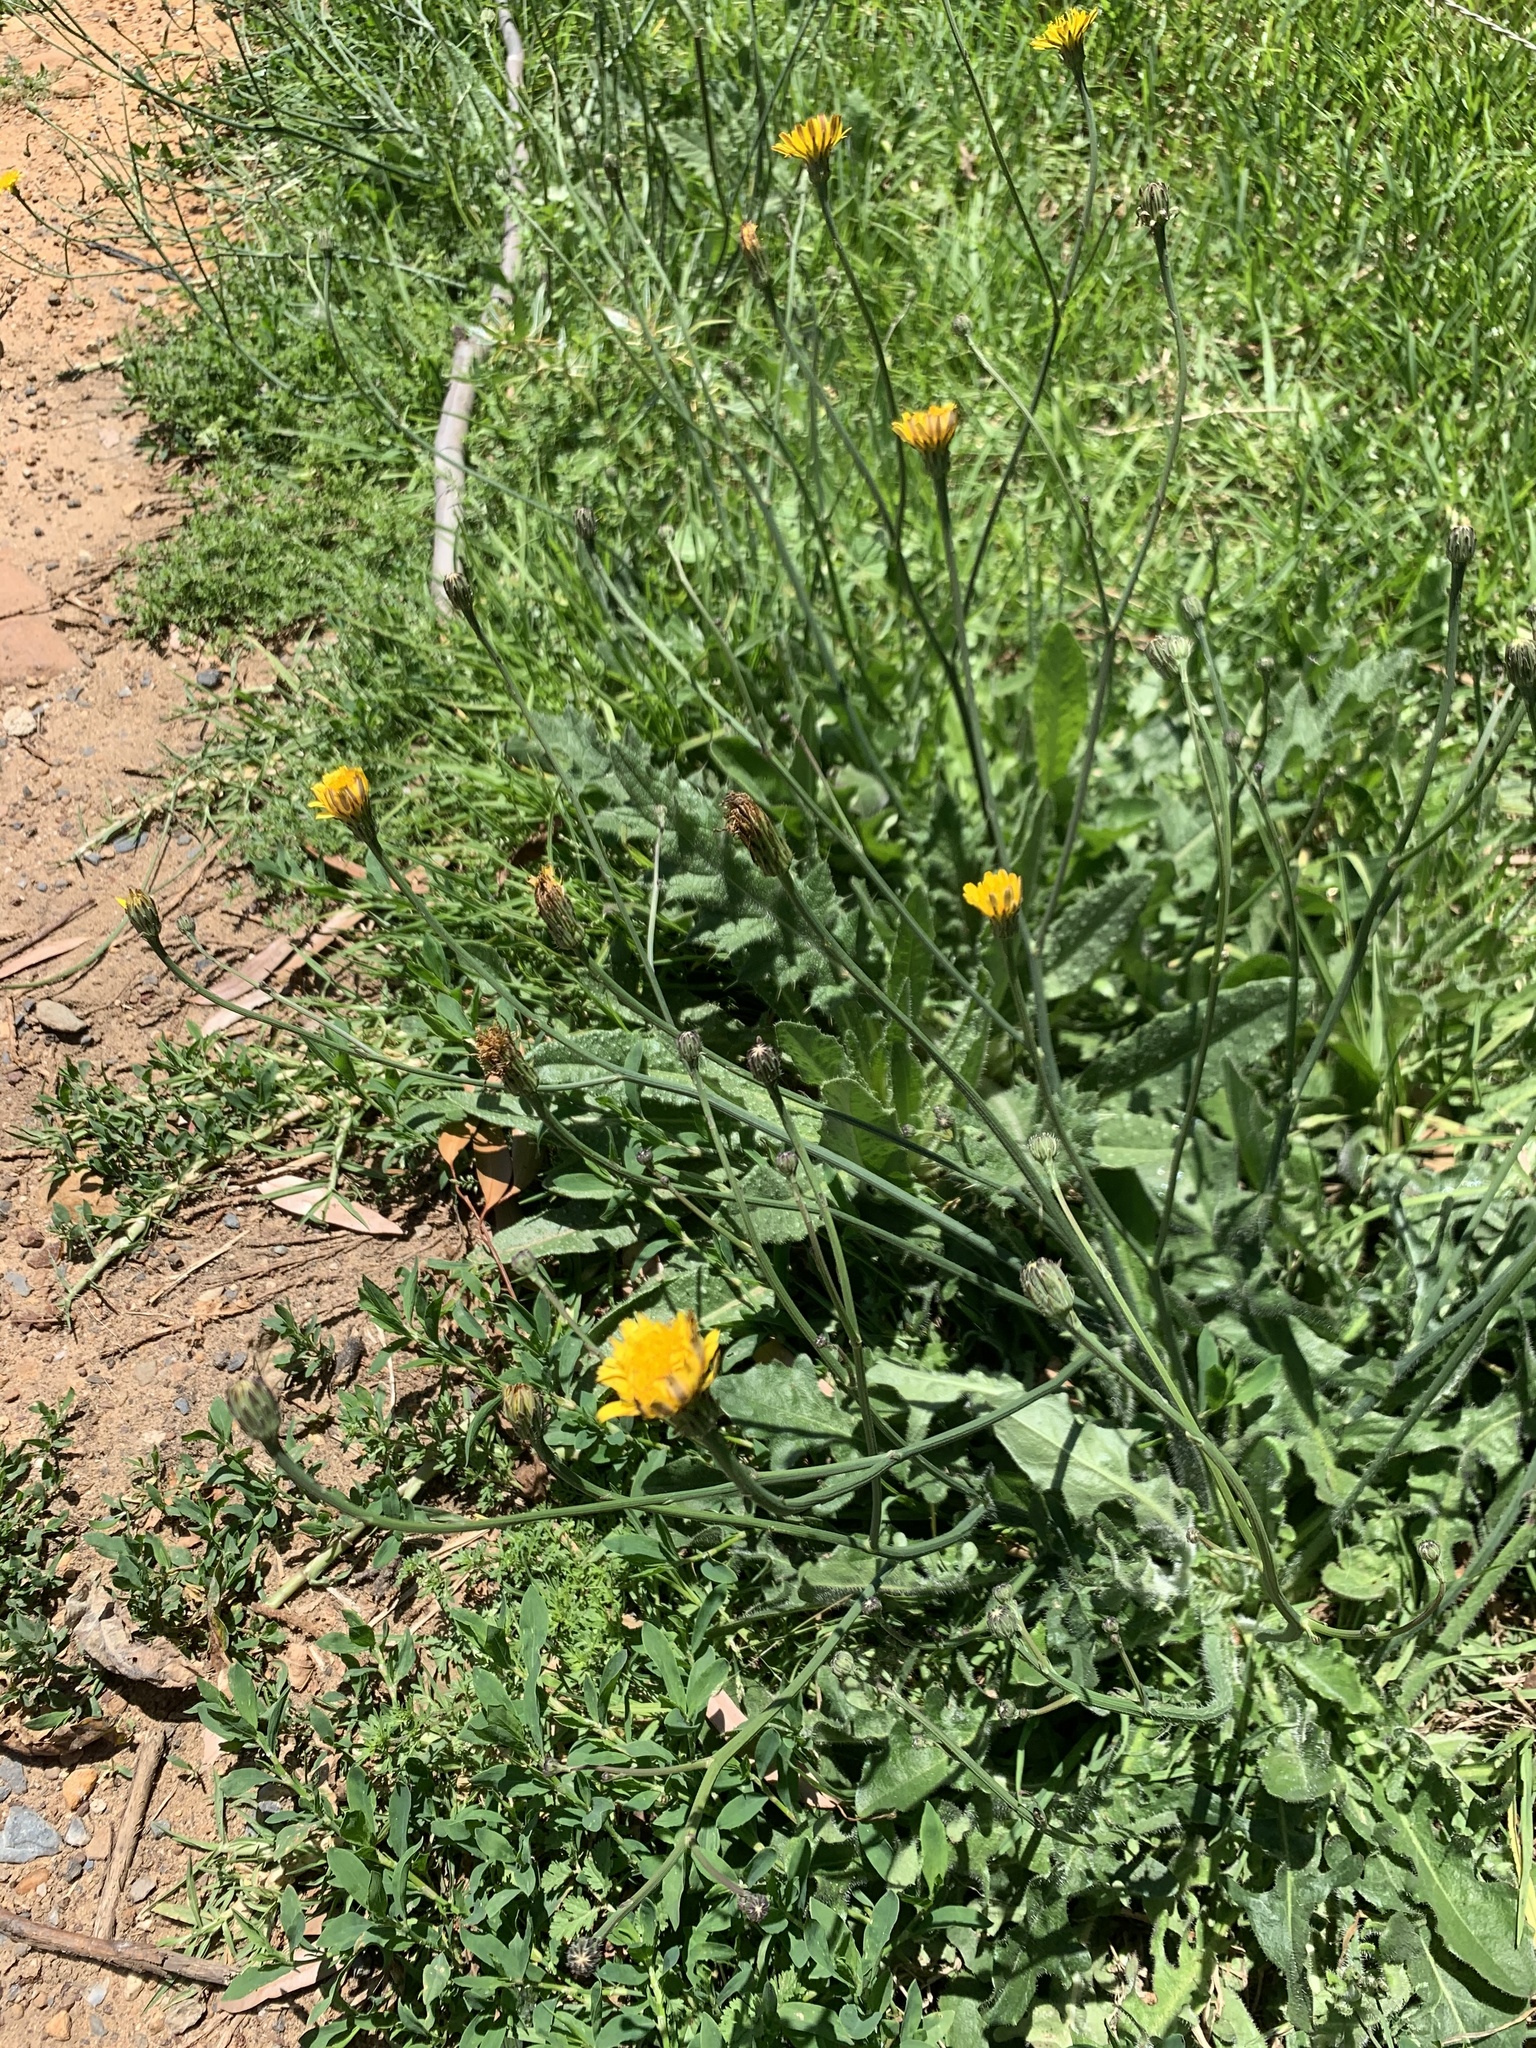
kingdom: Plantae
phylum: Tracheophyta
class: Magnoliopsida
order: Asterales
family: Asteraceae
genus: Hypochaeris
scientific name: Hypochaeris radicata
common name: Flatweed
